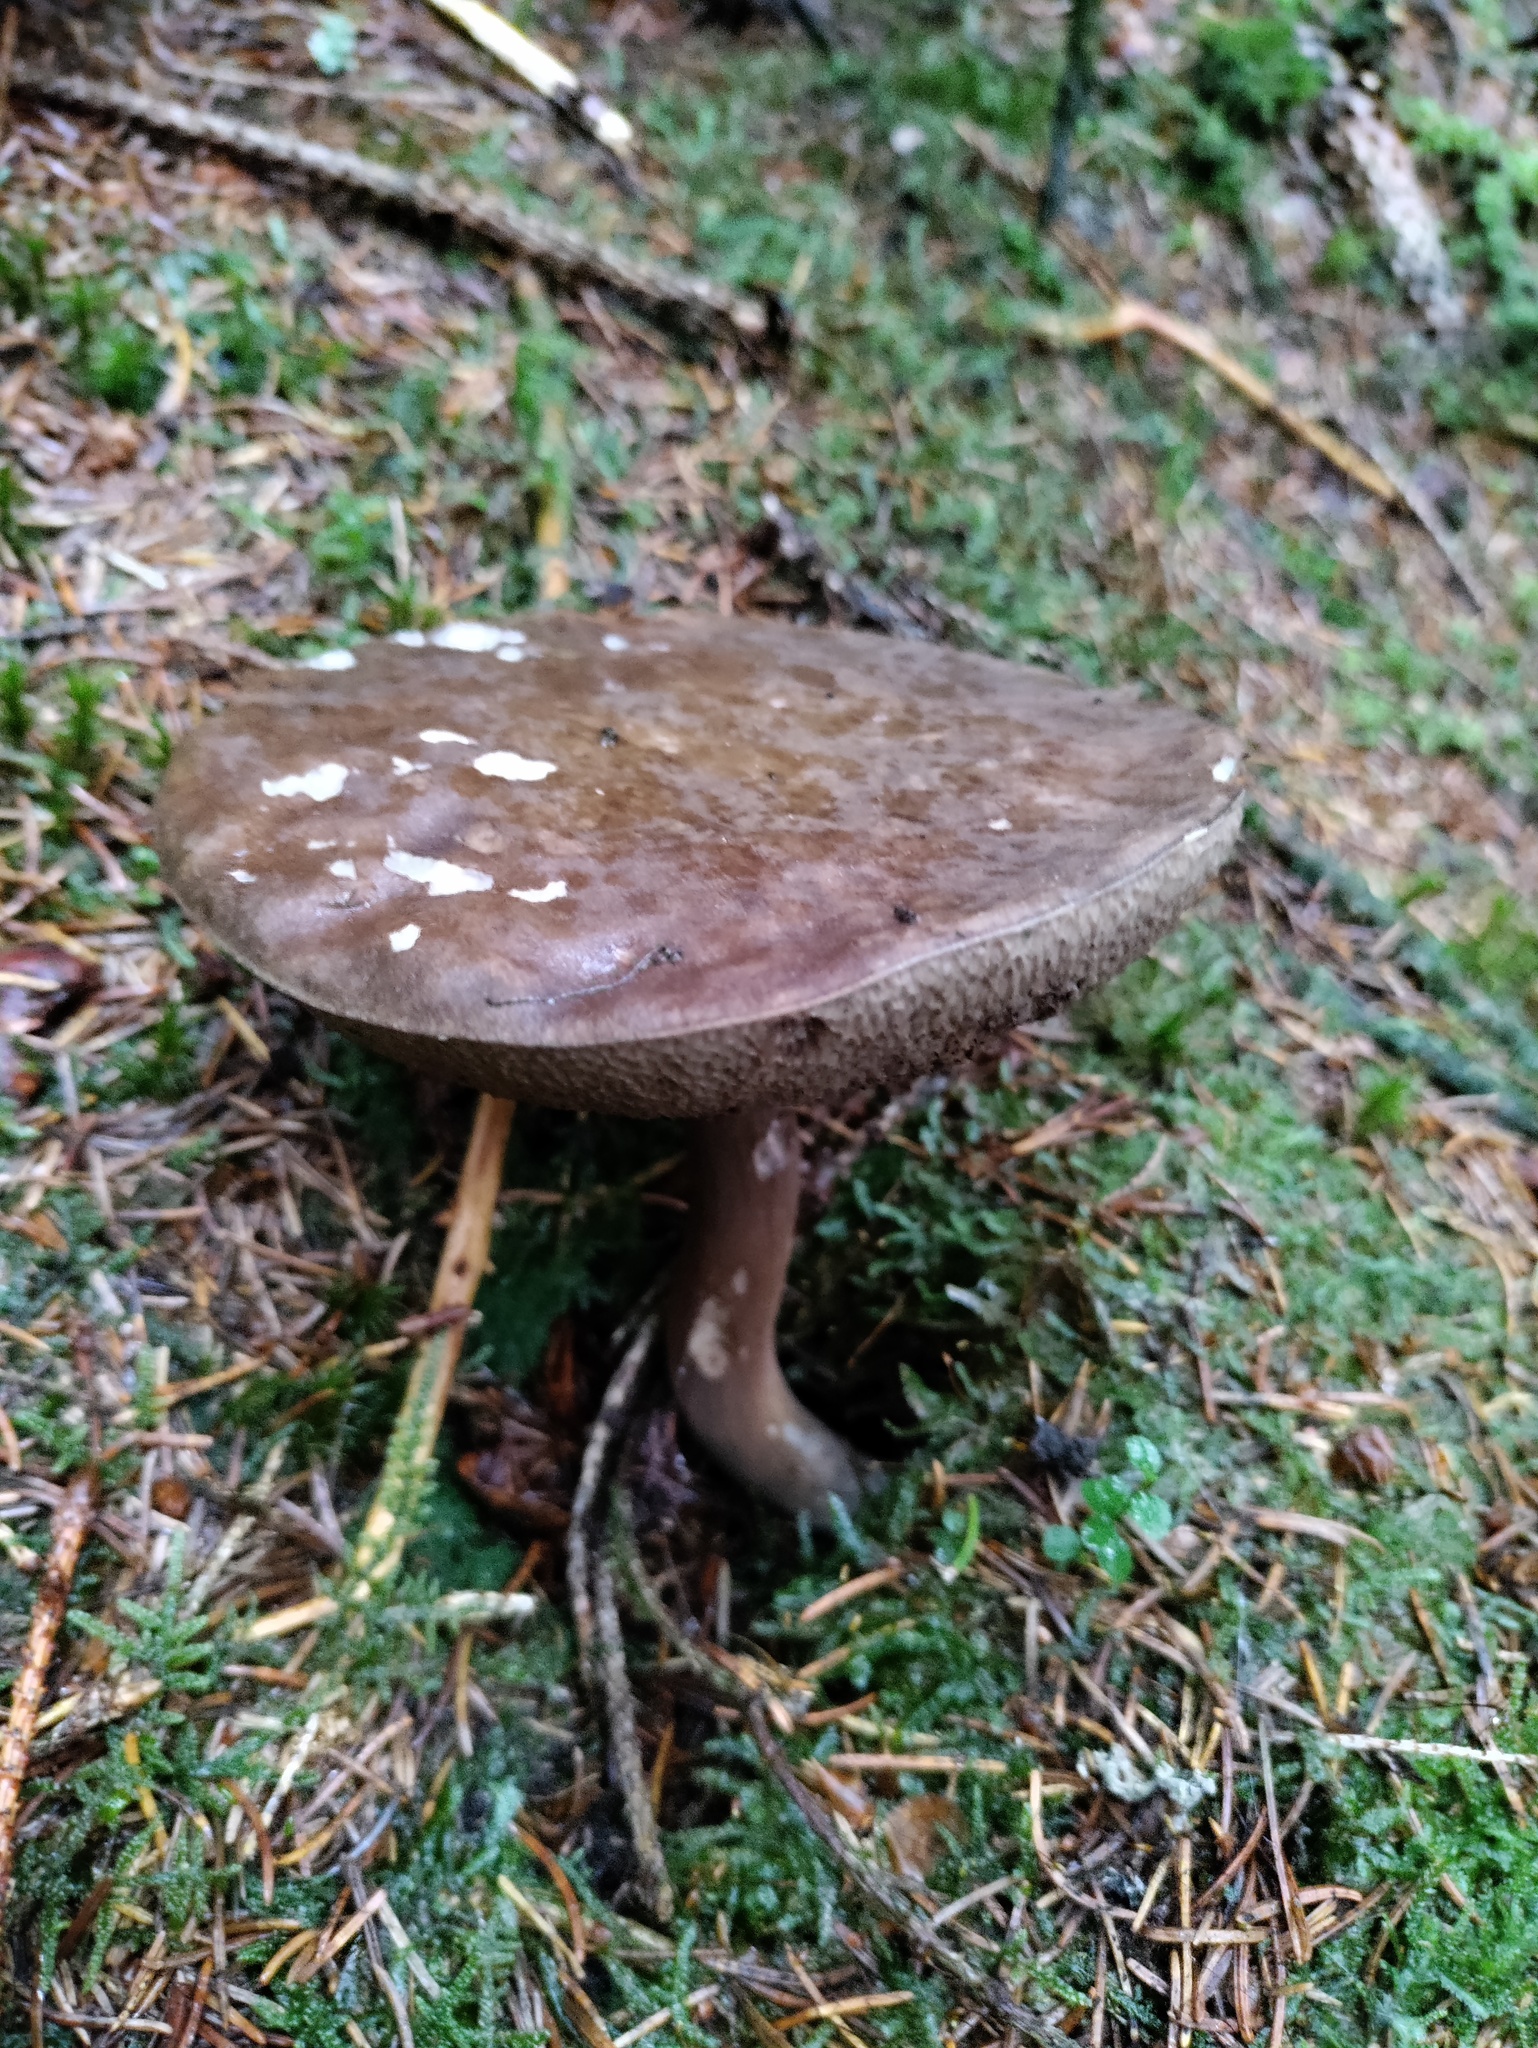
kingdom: Fungi
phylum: Basidiomycota
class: Agaricomycetes
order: Boletales
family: Boletaceae
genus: Porphyrellus
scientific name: Porphyrellus porphyrosporus
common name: Dusky bolete
